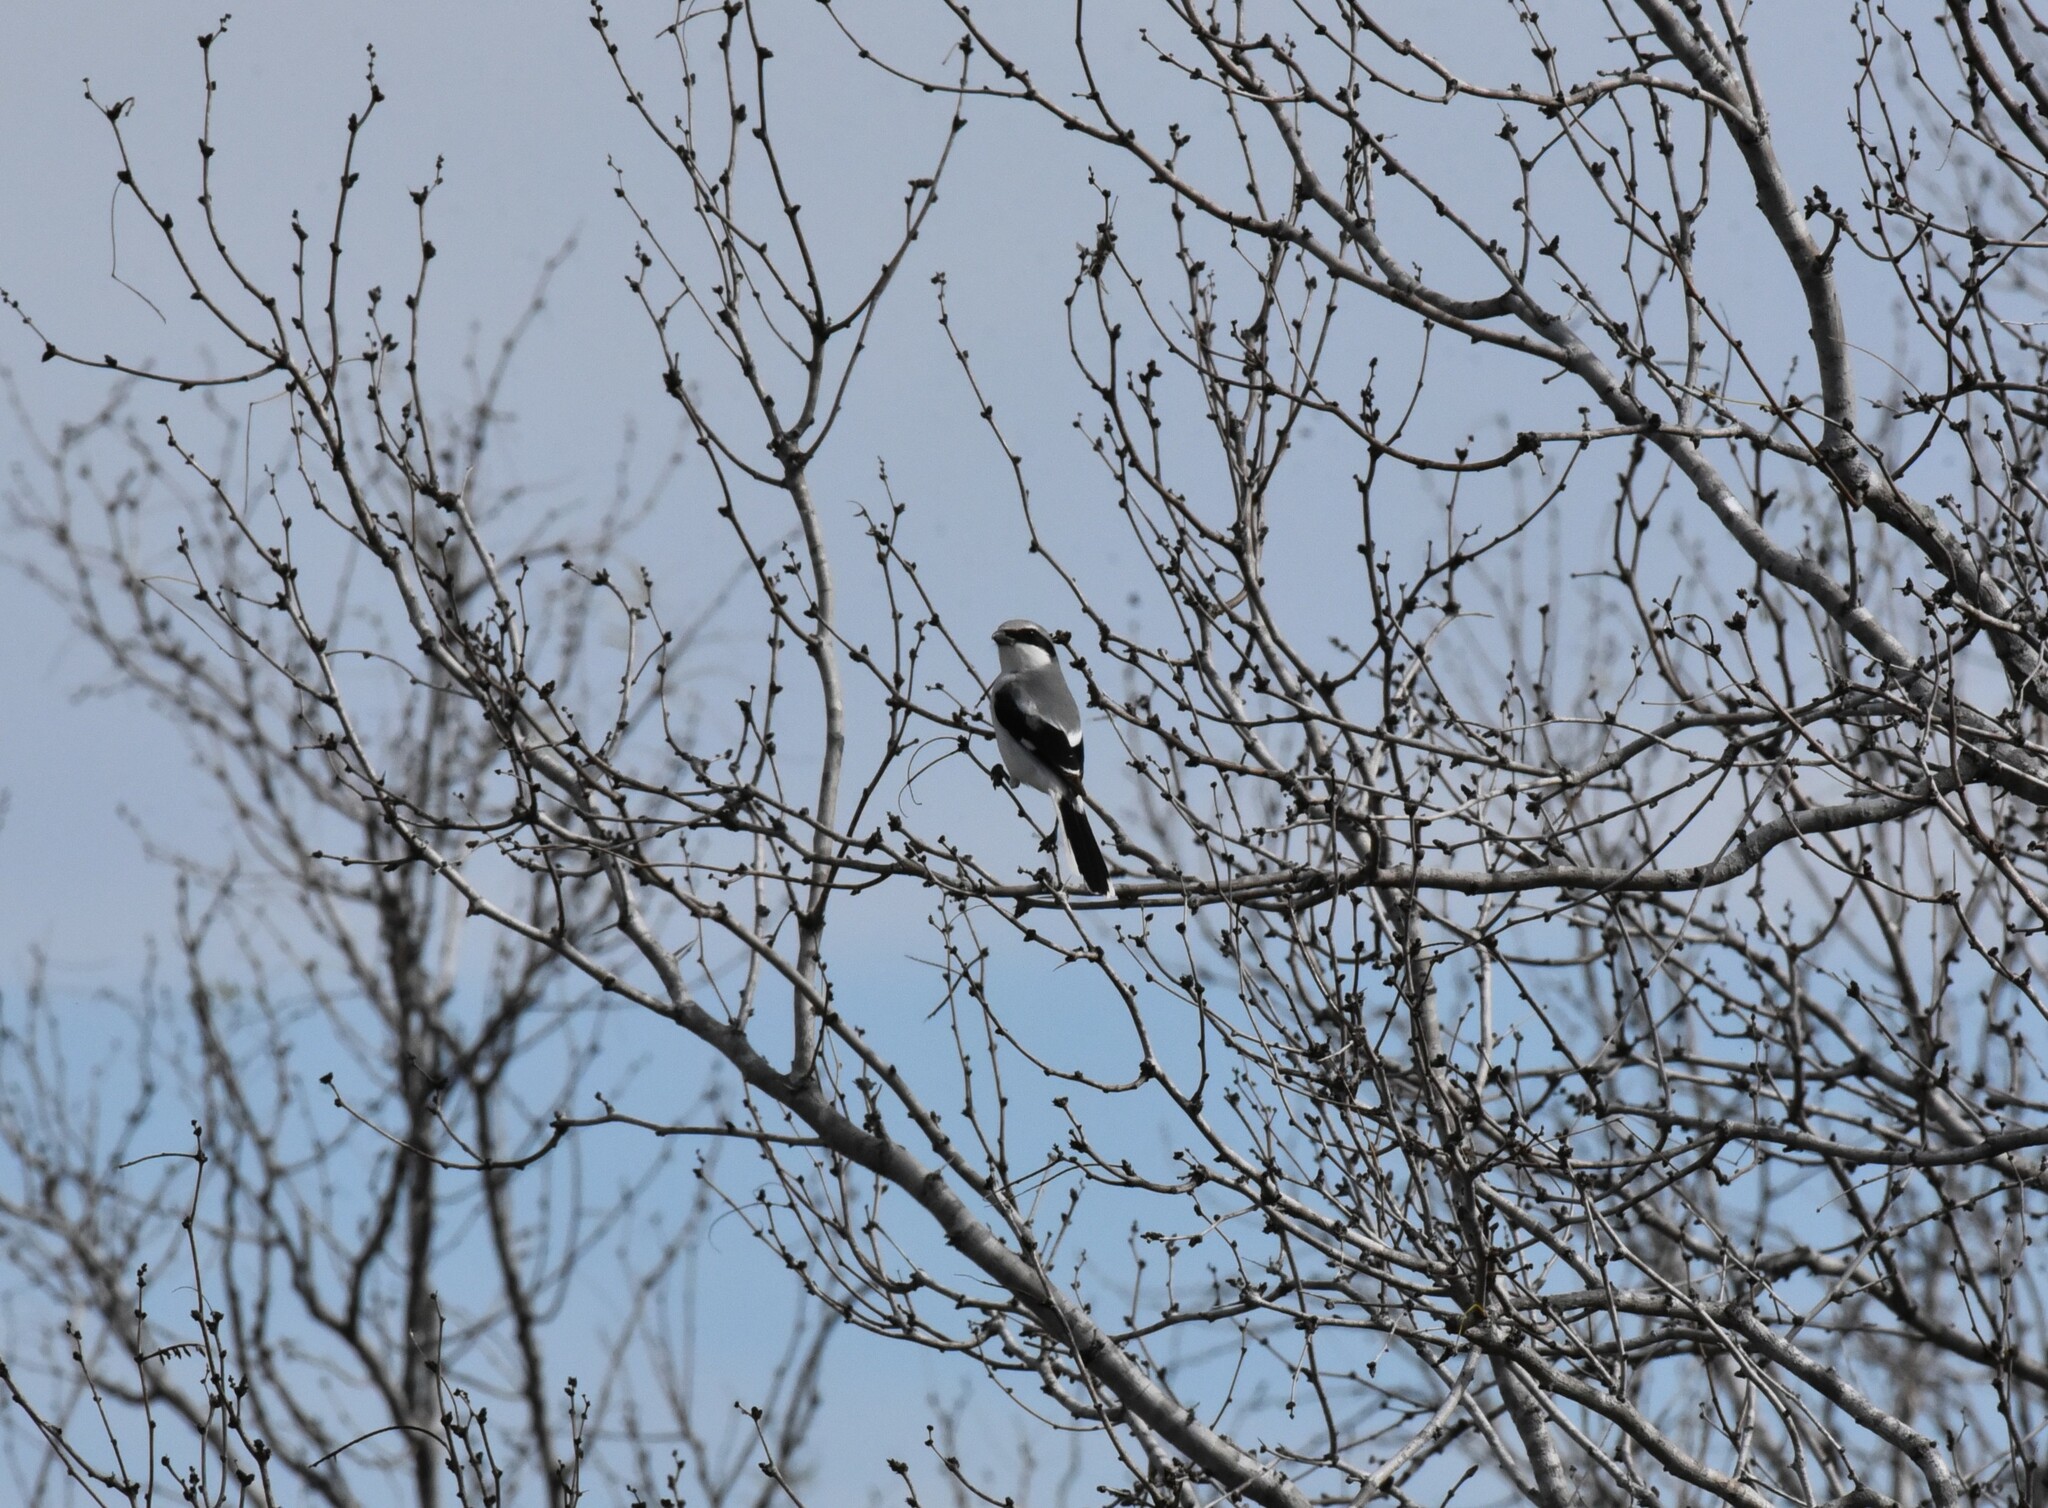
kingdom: Animalia
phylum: Chordata
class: Aves
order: Passeriformes
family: Laniidae
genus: Lanius
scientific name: Lanius ludovicianus
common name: Loggerhead shrike
